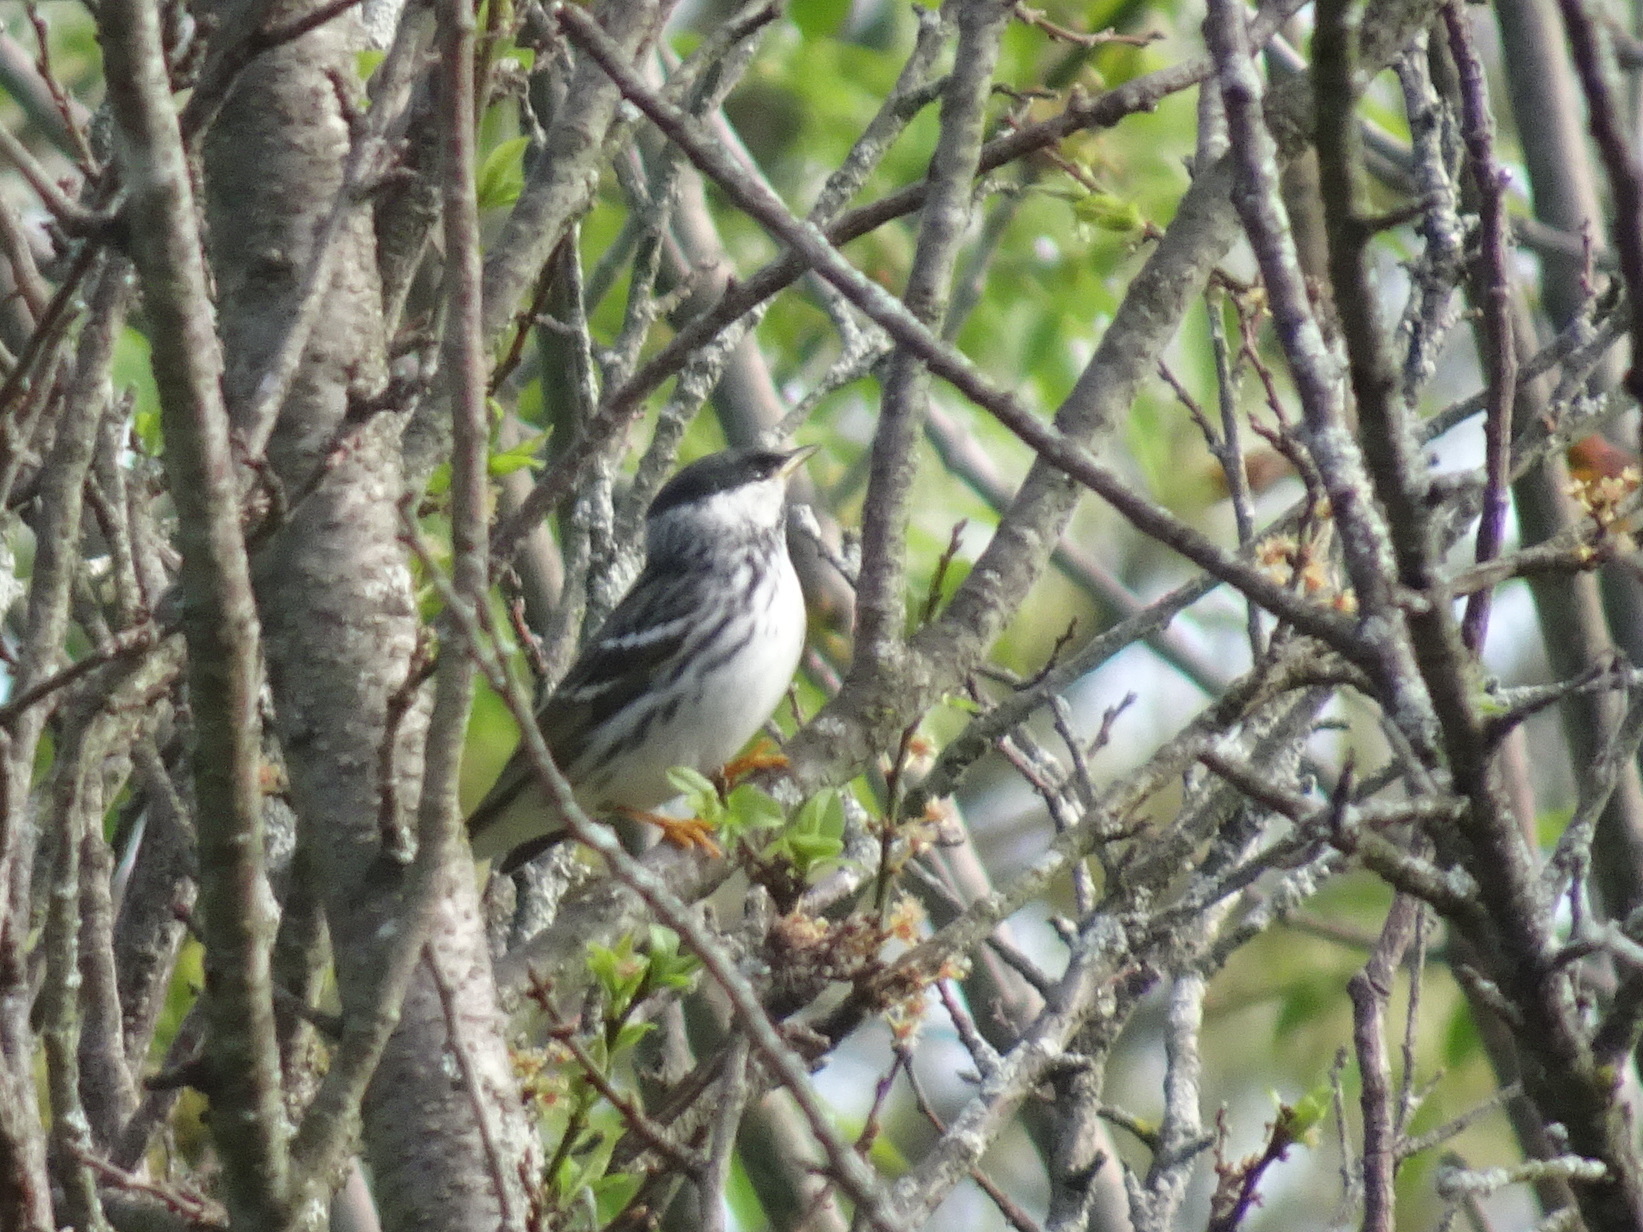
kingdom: Animalia
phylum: Chordata
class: Aves
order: Passeriformes
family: Parulidae
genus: Setophaga
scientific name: Setophaga striata
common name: Blackpoll warbler
